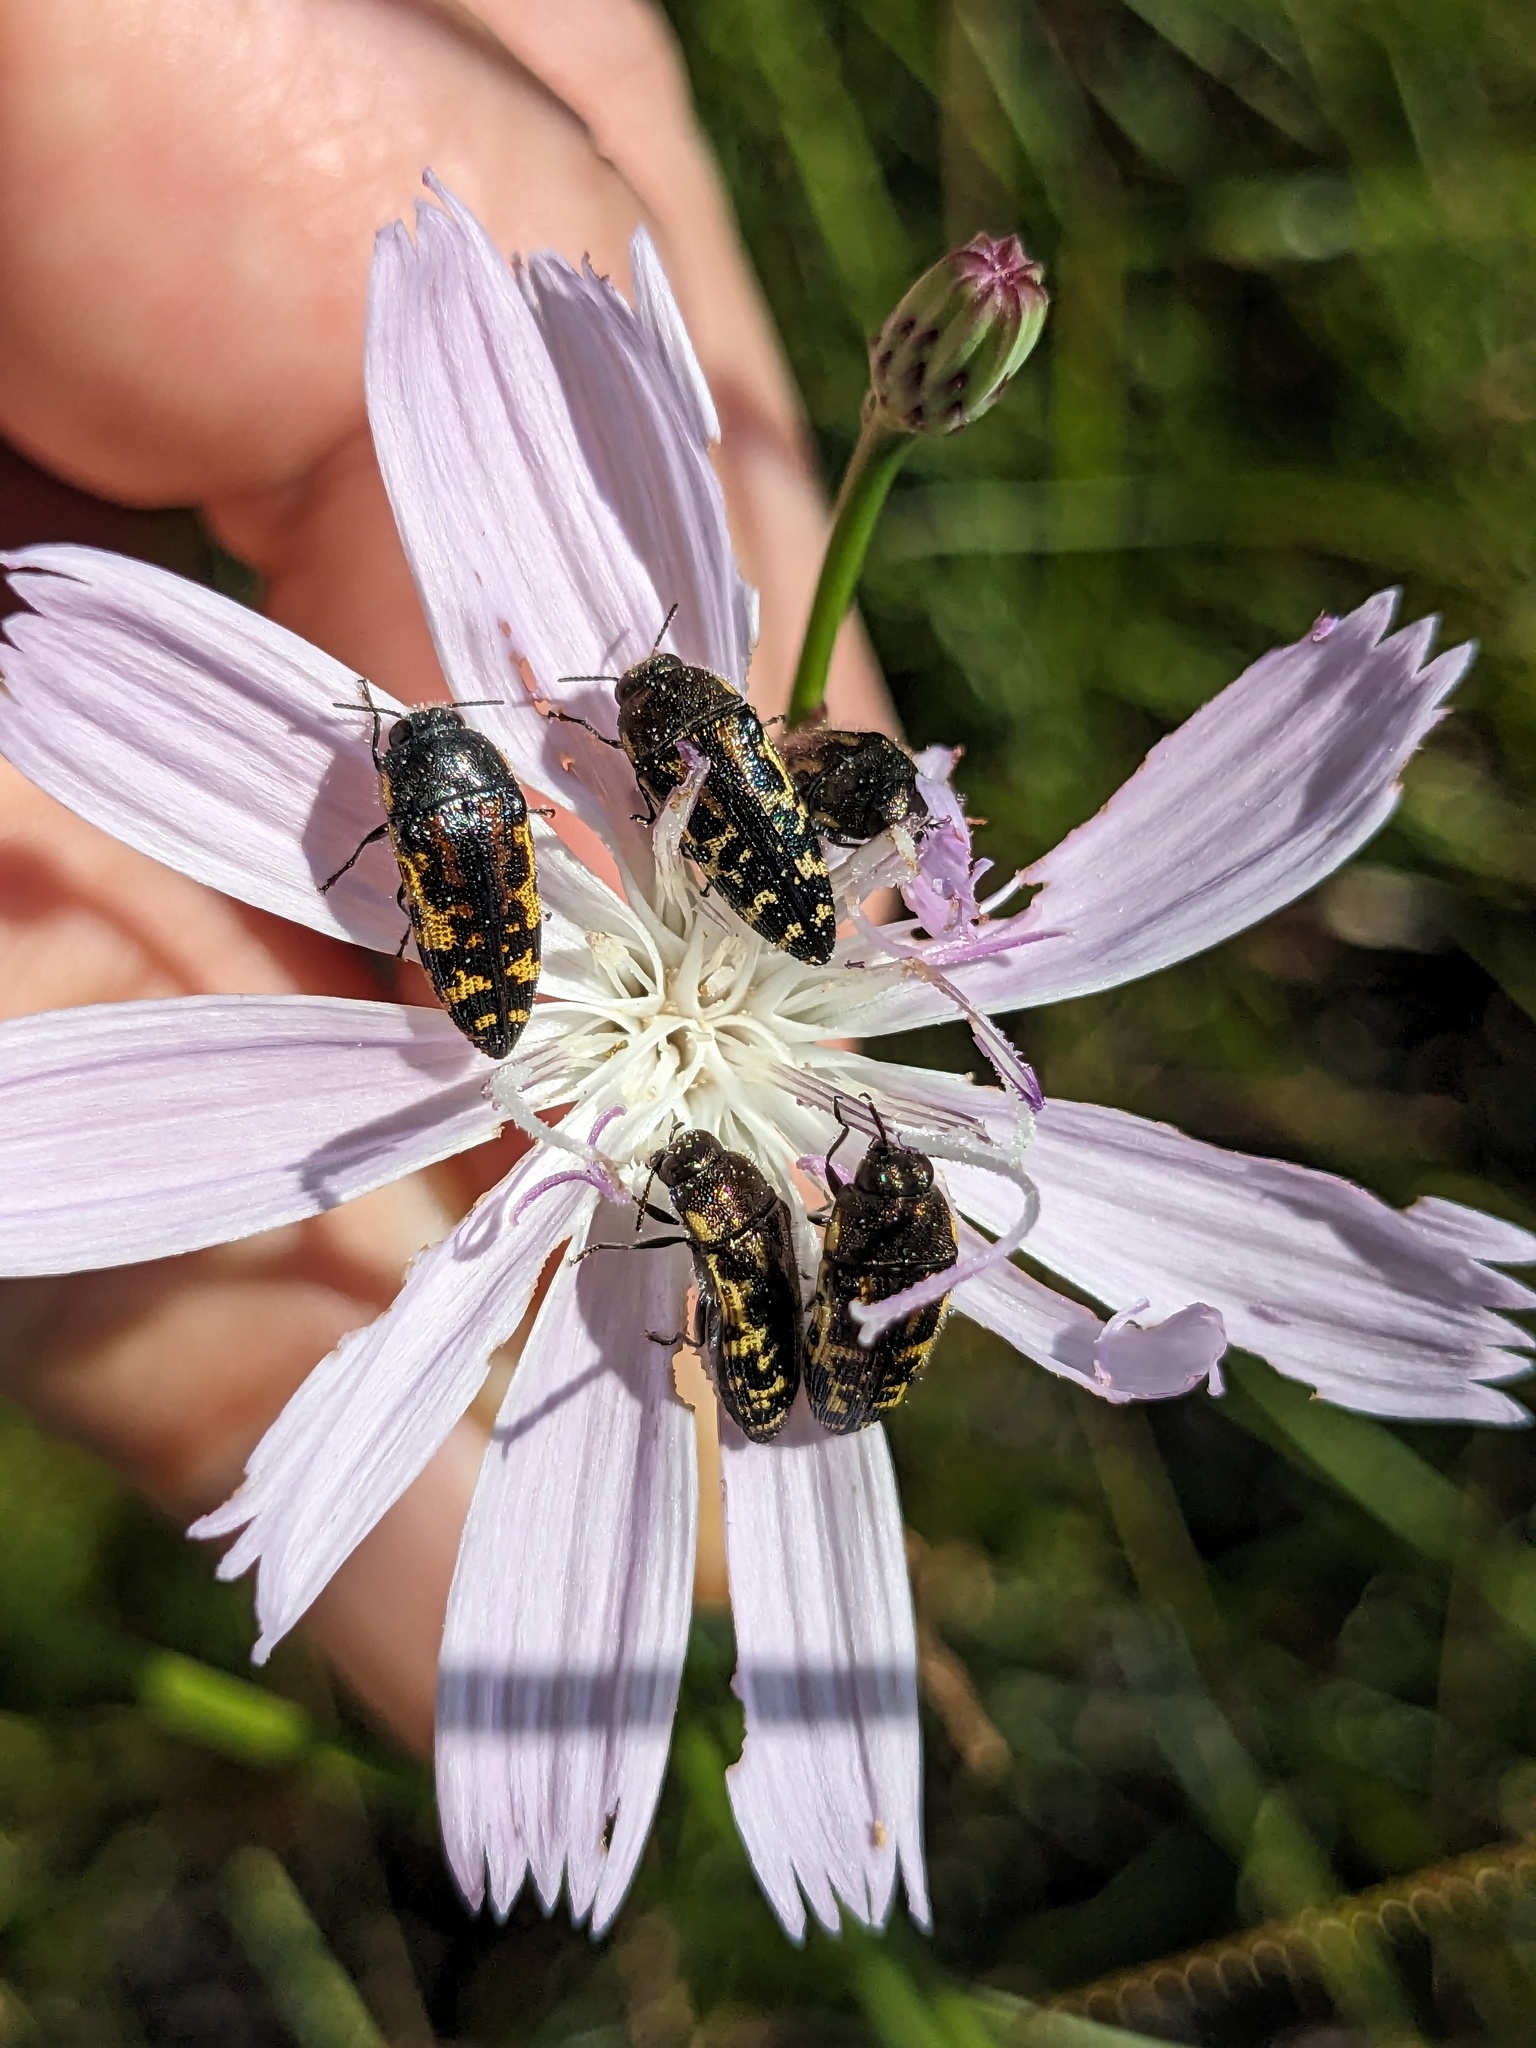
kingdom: Animalia
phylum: Arthropoda
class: Insecta
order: Coleoptera
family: Buprestidae
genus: Acmaeodera
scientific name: Acmaeodera pulchella
